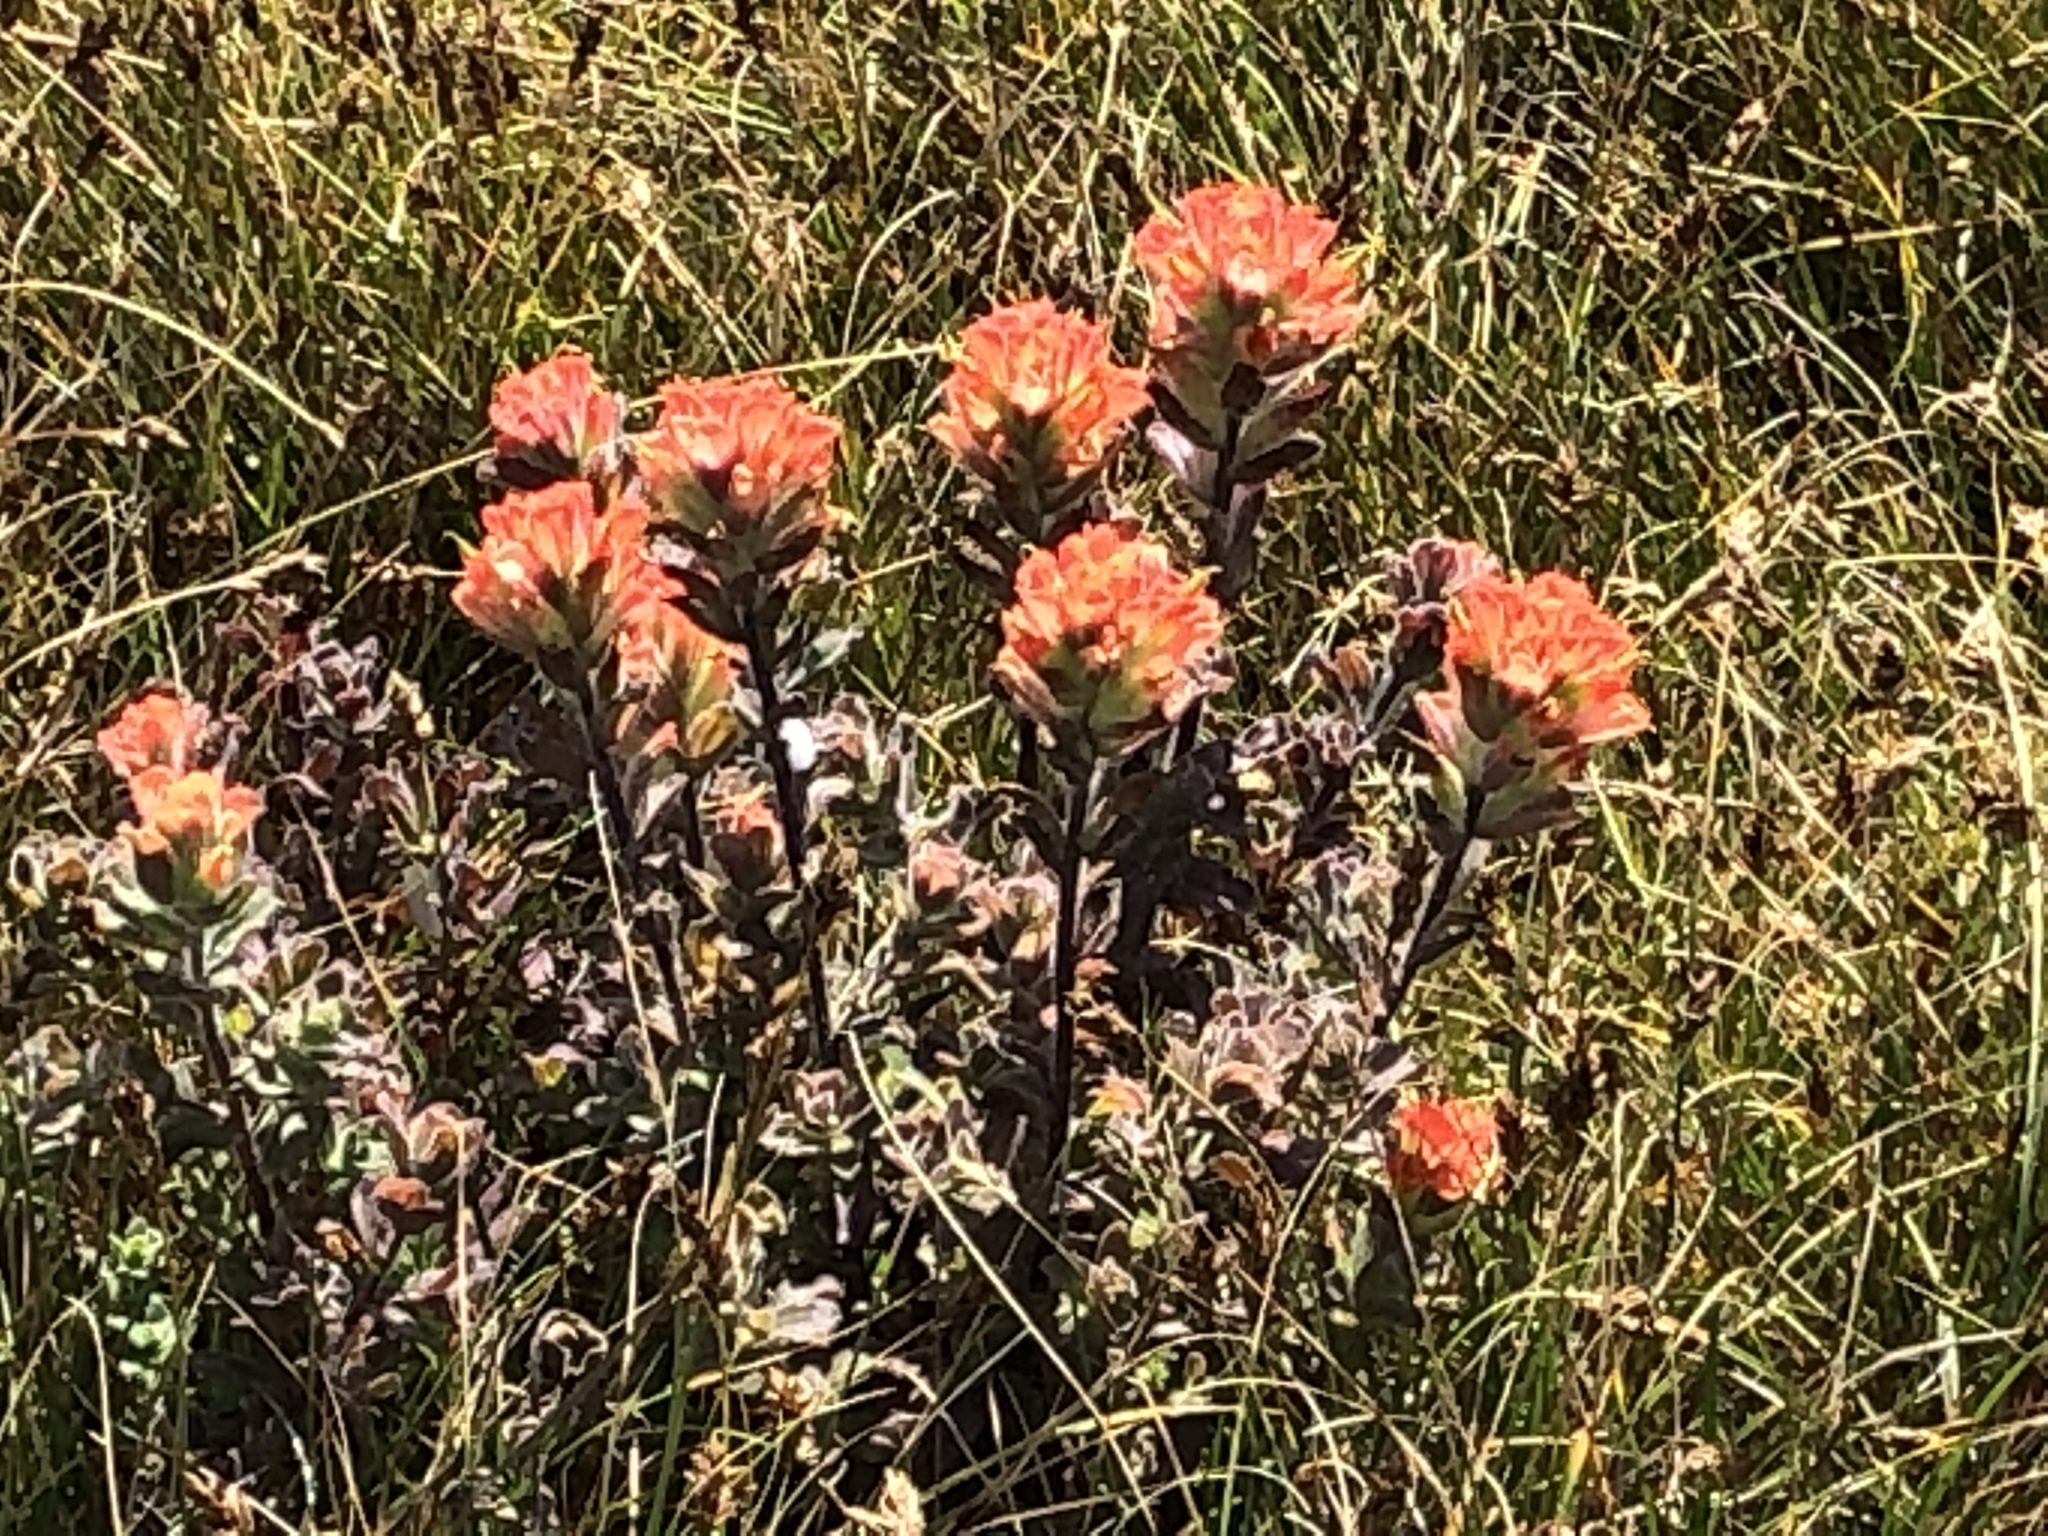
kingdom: Plantae
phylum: Tracheophyta
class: Magnoliopsida
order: Lamiales
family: Orobanchaceae
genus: Castilleja
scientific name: Castilleja latifolia
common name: Monterey indian paintbrush
